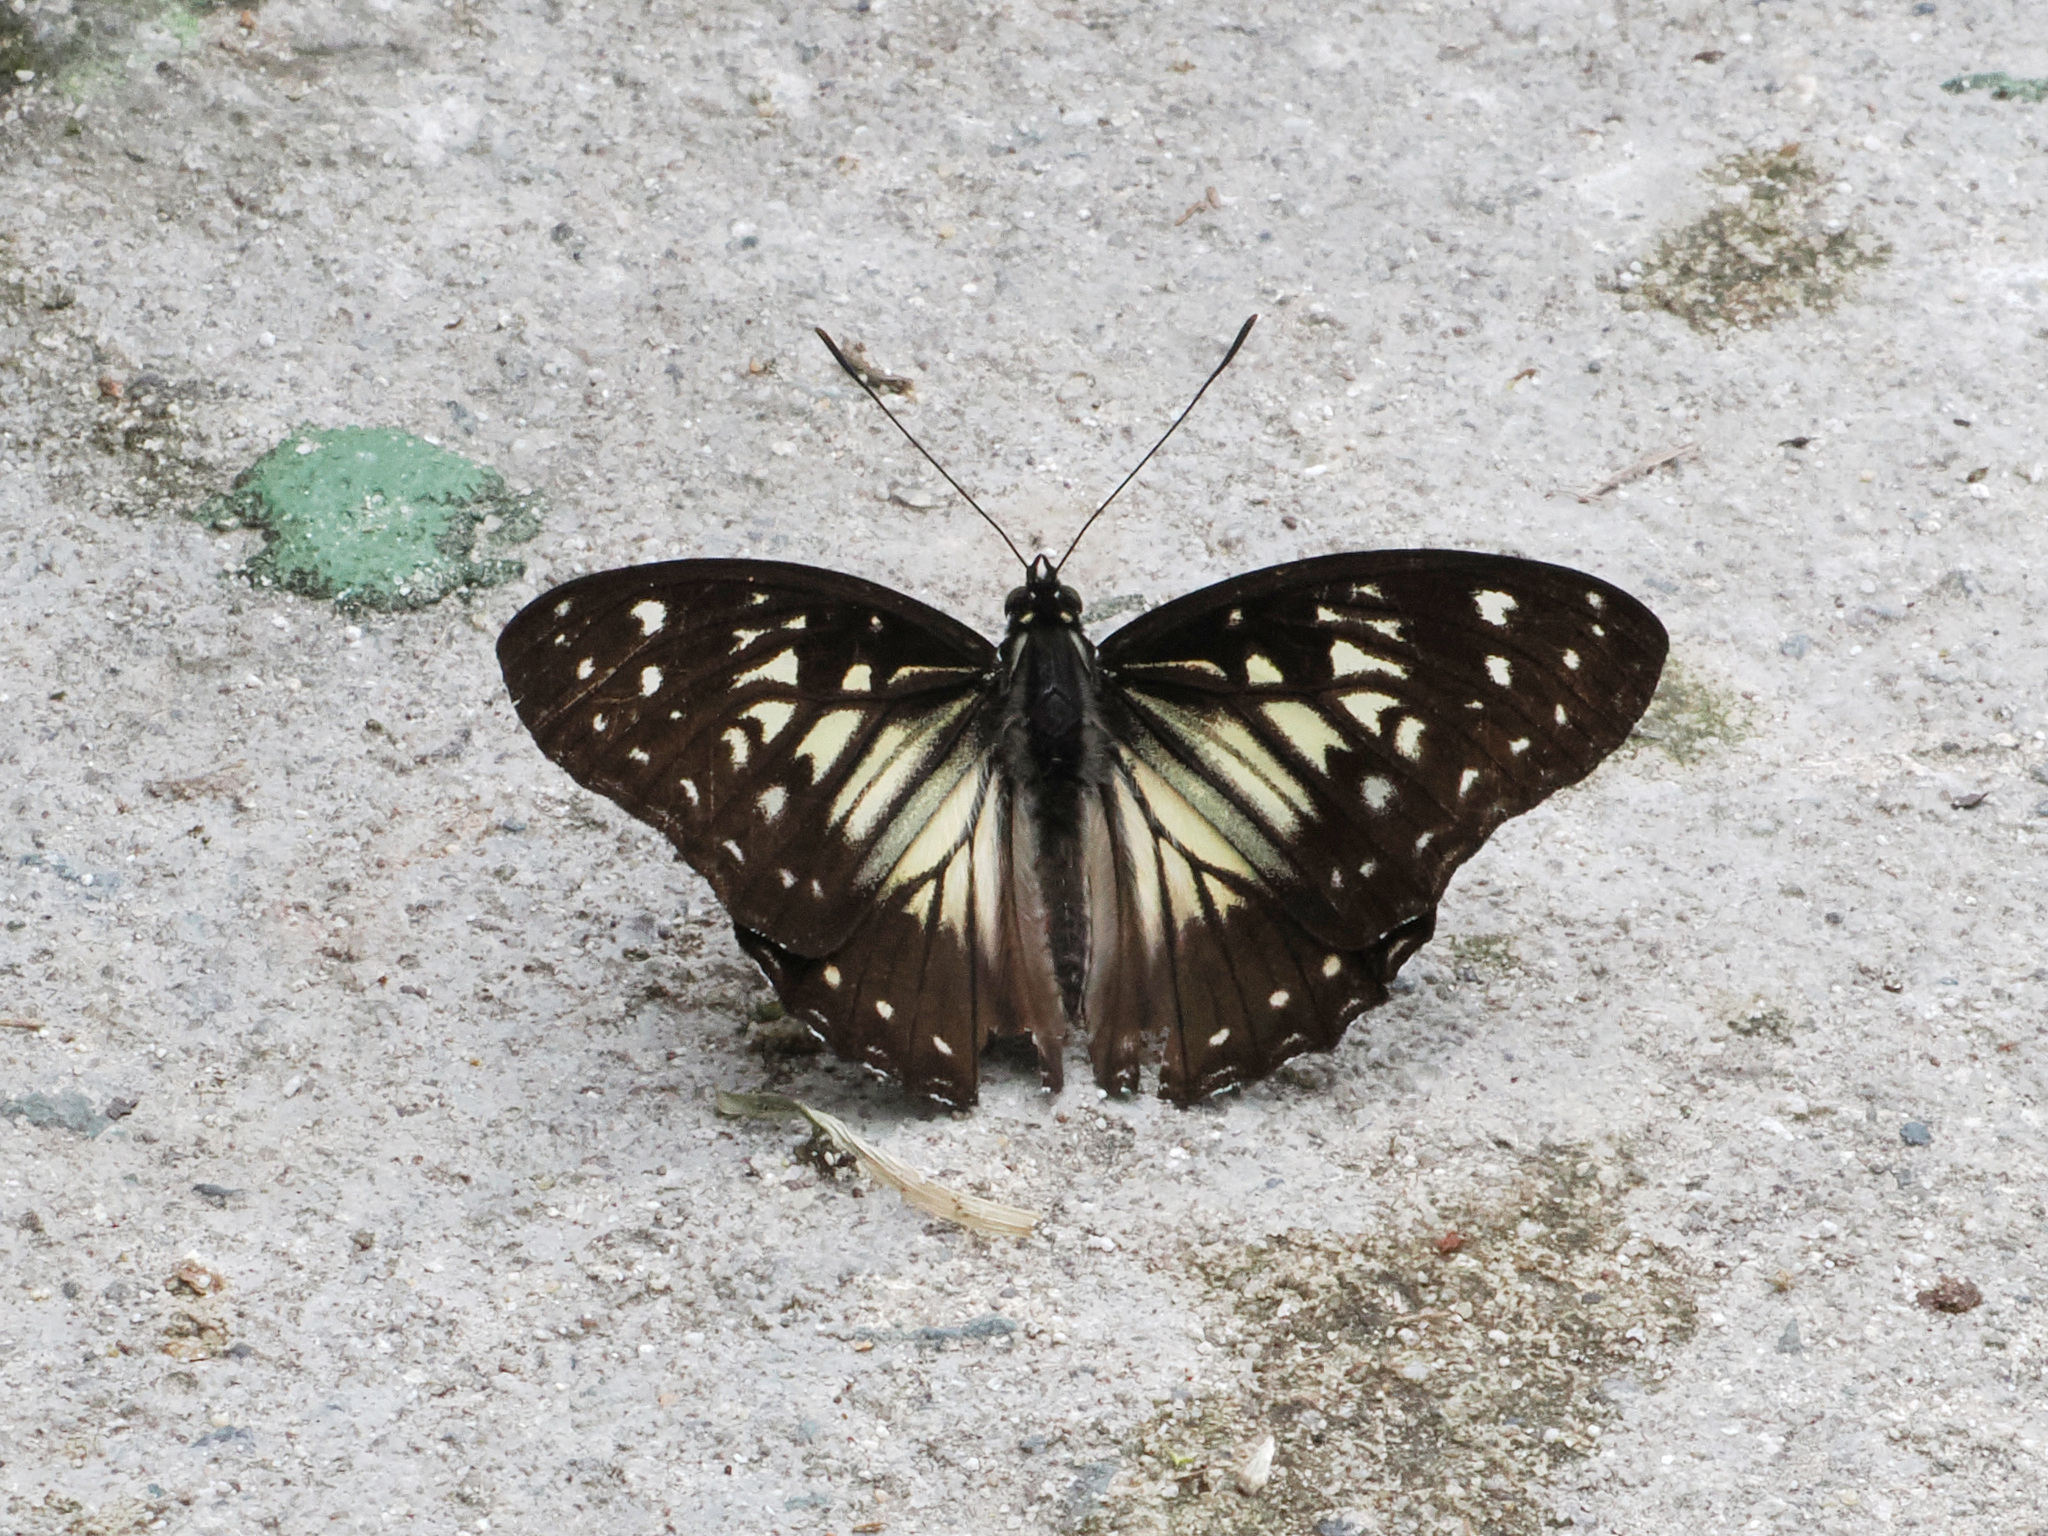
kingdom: Animalia
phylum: Arthropoda
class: Insecta
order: Lepidoptera
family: Nymphalidae
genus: Hestinalis
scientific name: Hestinalis divona
